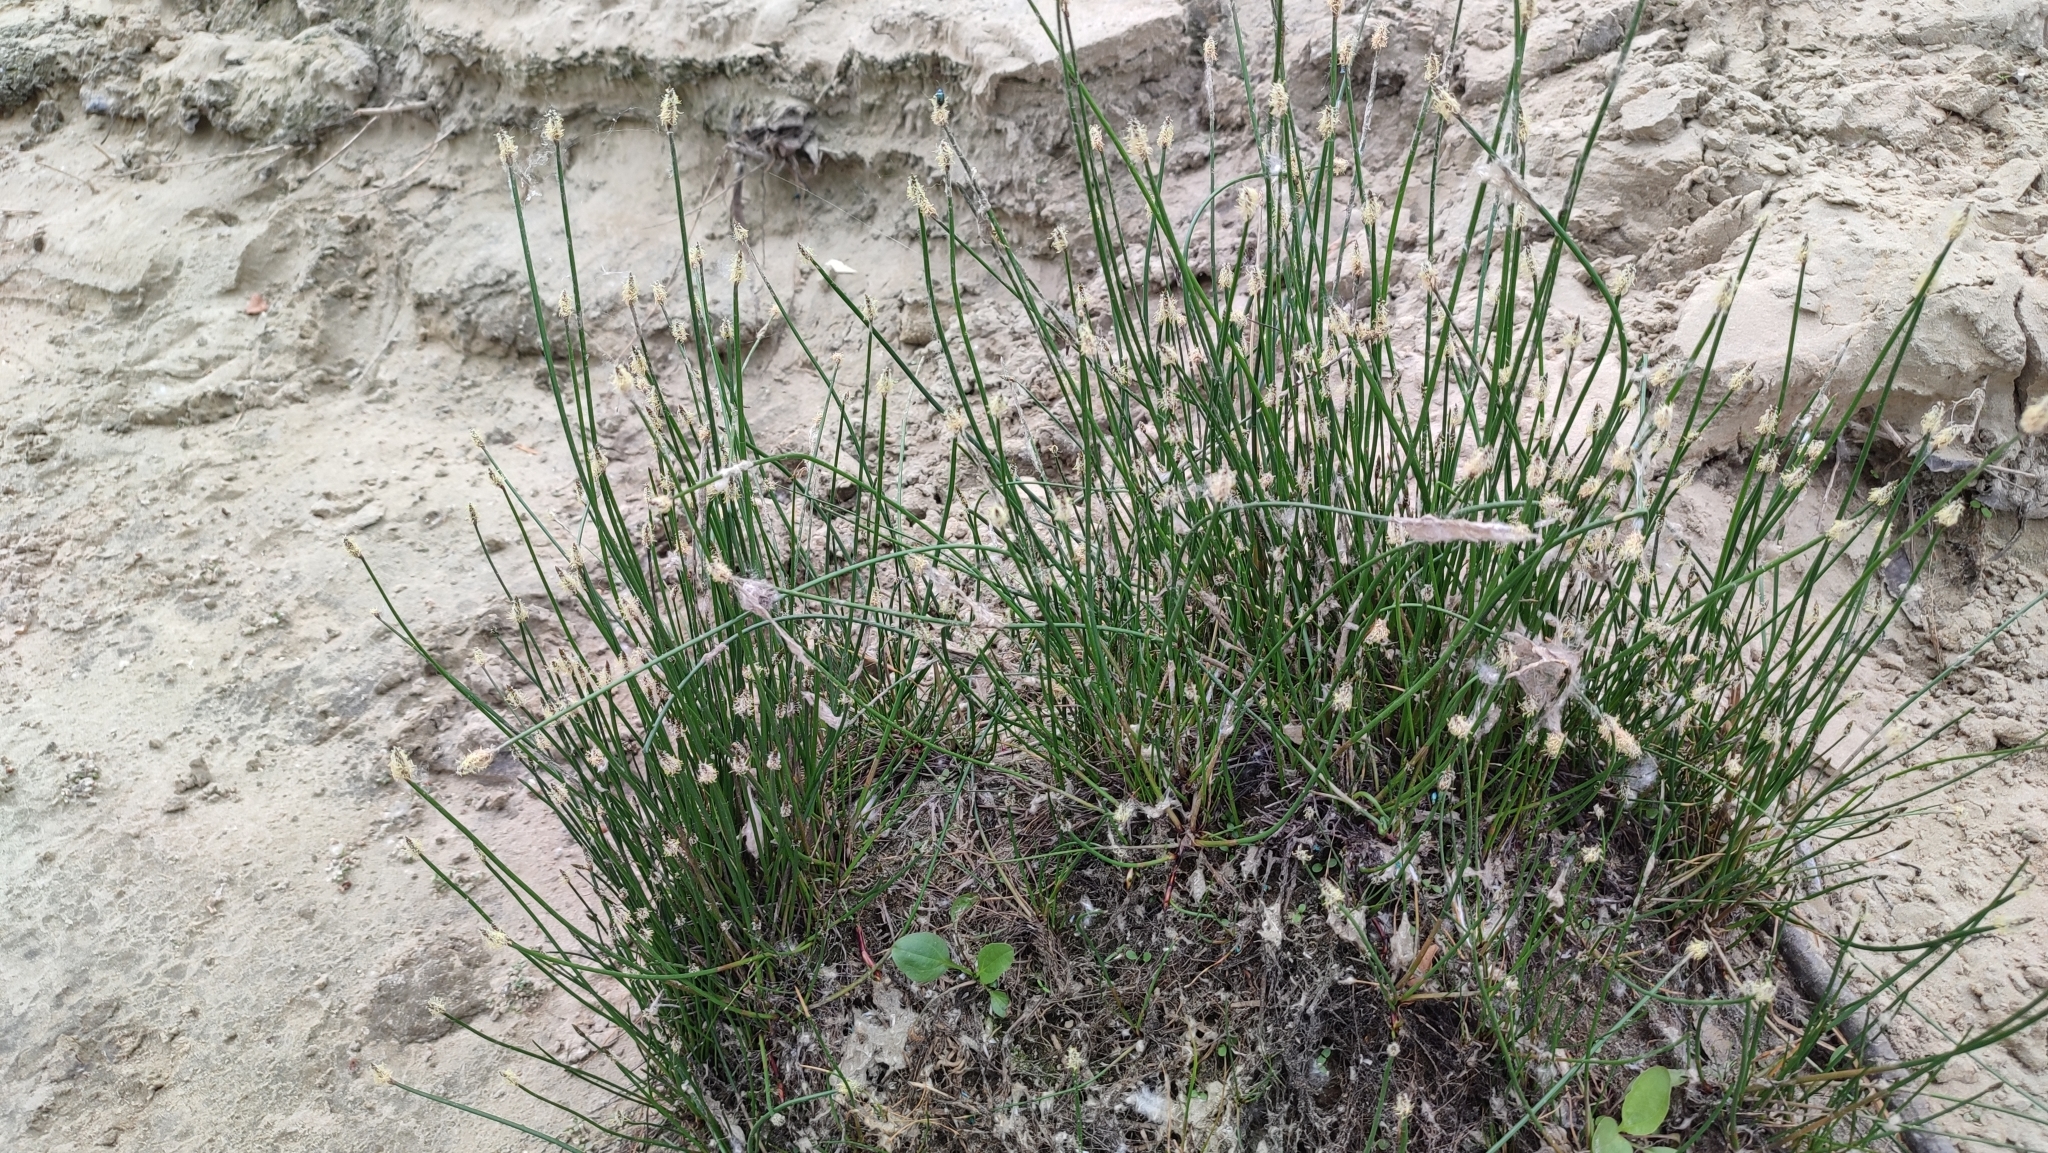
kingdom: Plantae
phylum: Tracheophyta
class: Liliopsida
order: Poales
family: Cyperaceae
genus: Eleocharis
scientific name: Eleocharis palustris
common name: Common spike-rush
